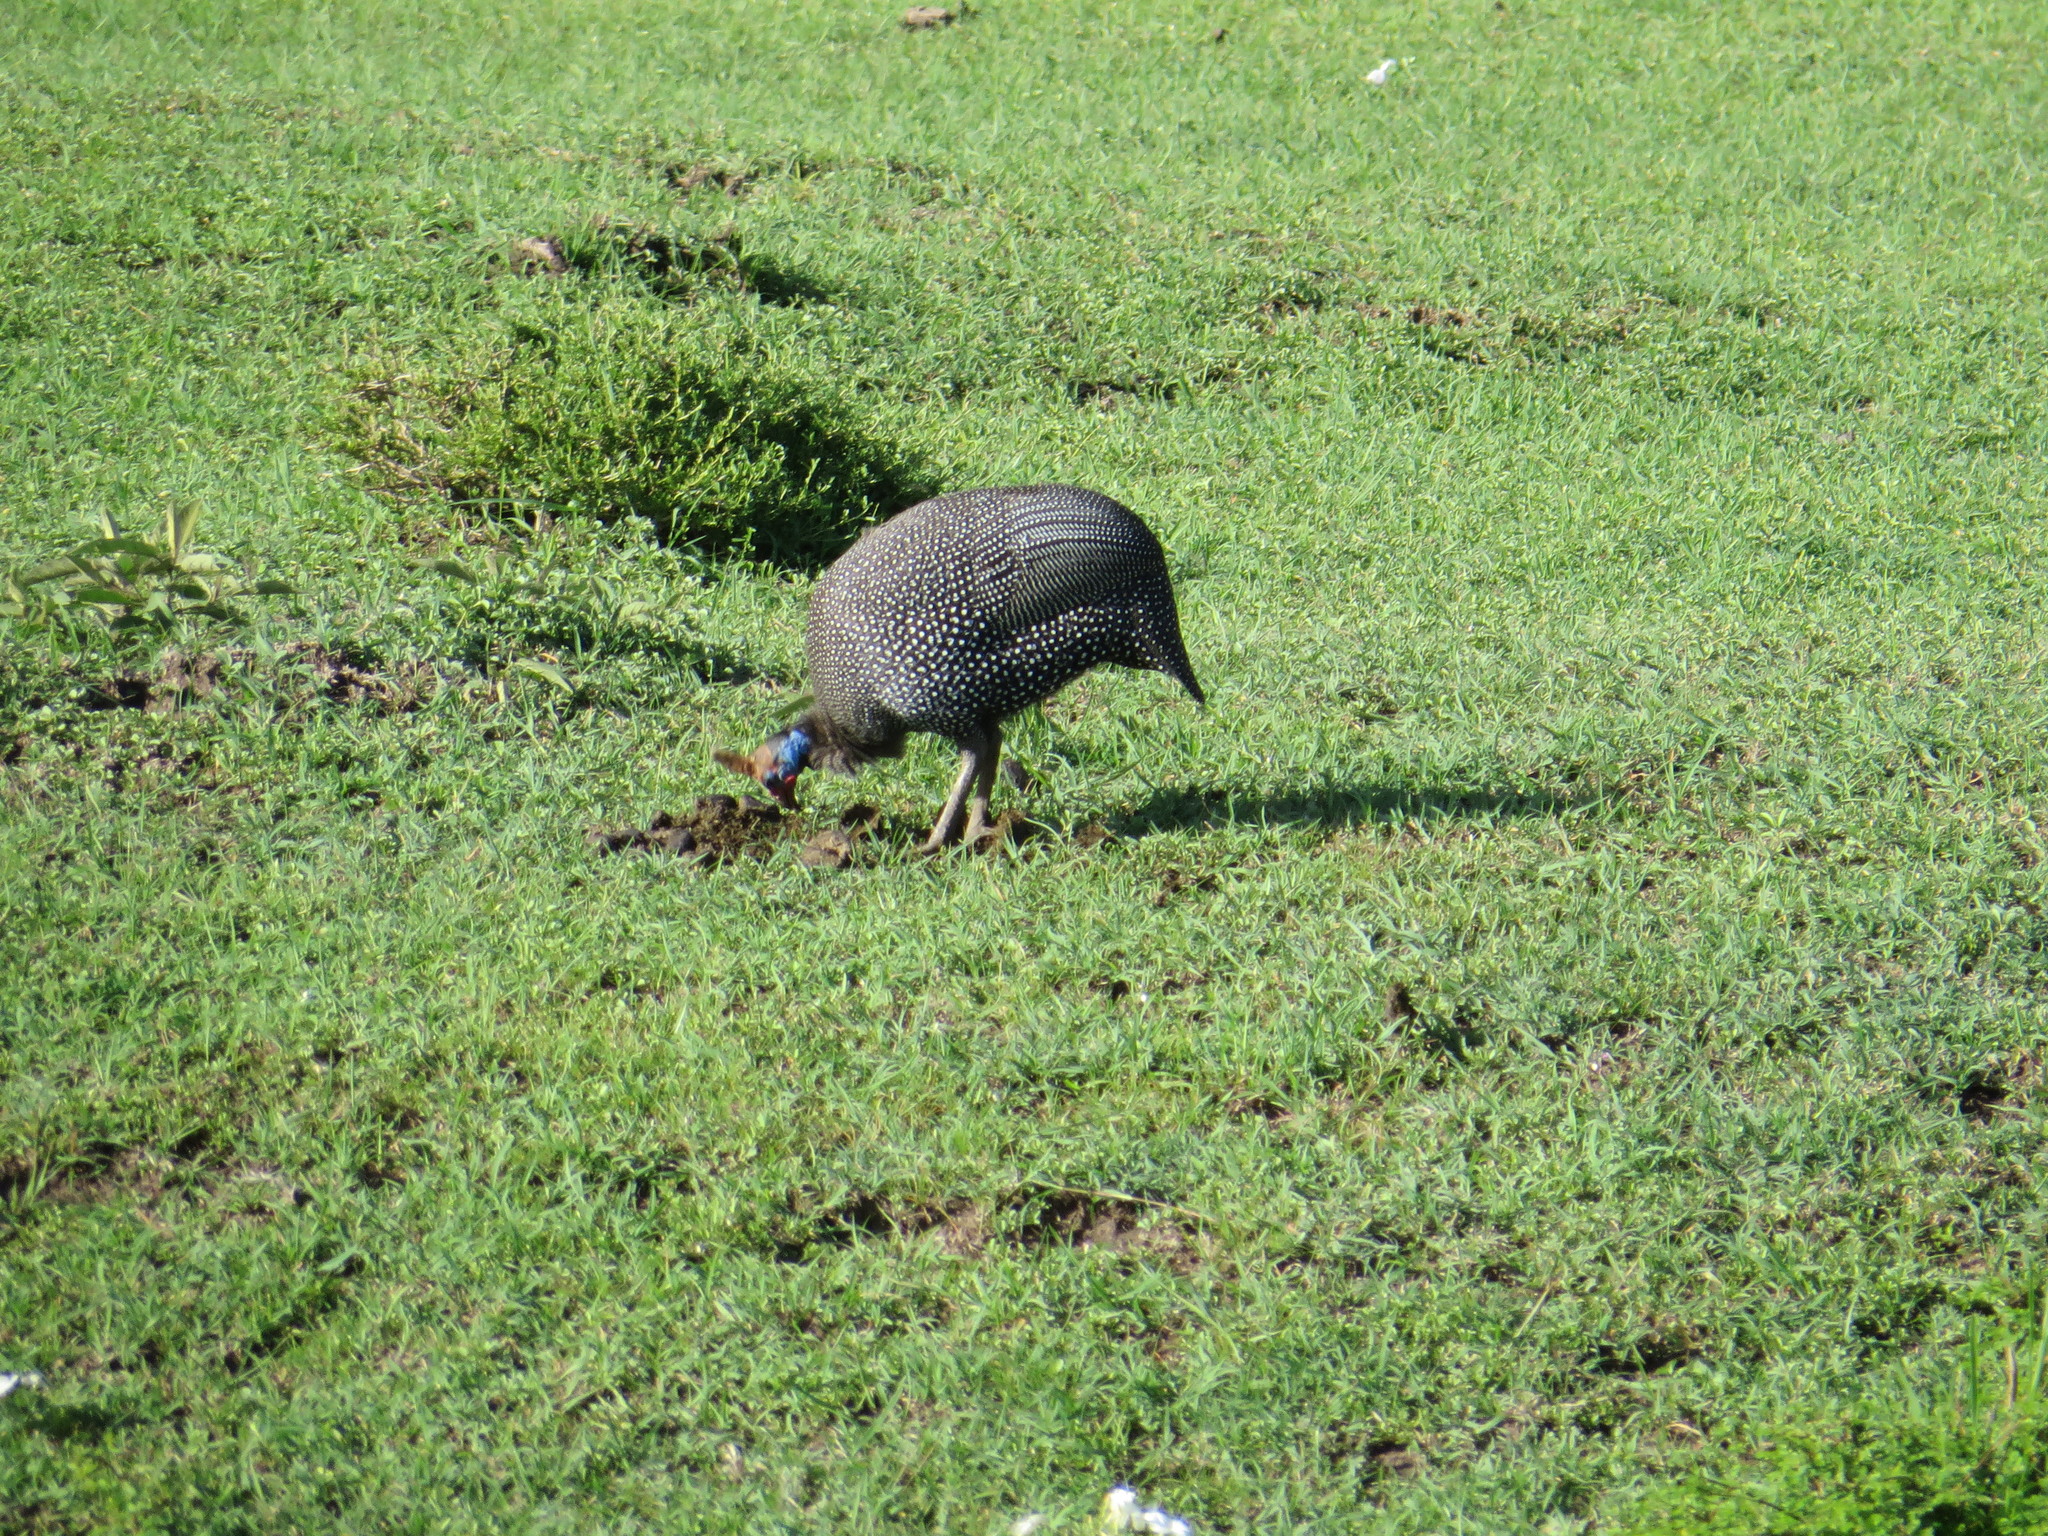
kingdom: Animalia
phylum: Chordata
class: Aves
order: Galliformes
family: Numididae
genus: Numida
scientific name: Numida meleagris
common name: Helmeted guineafowl
